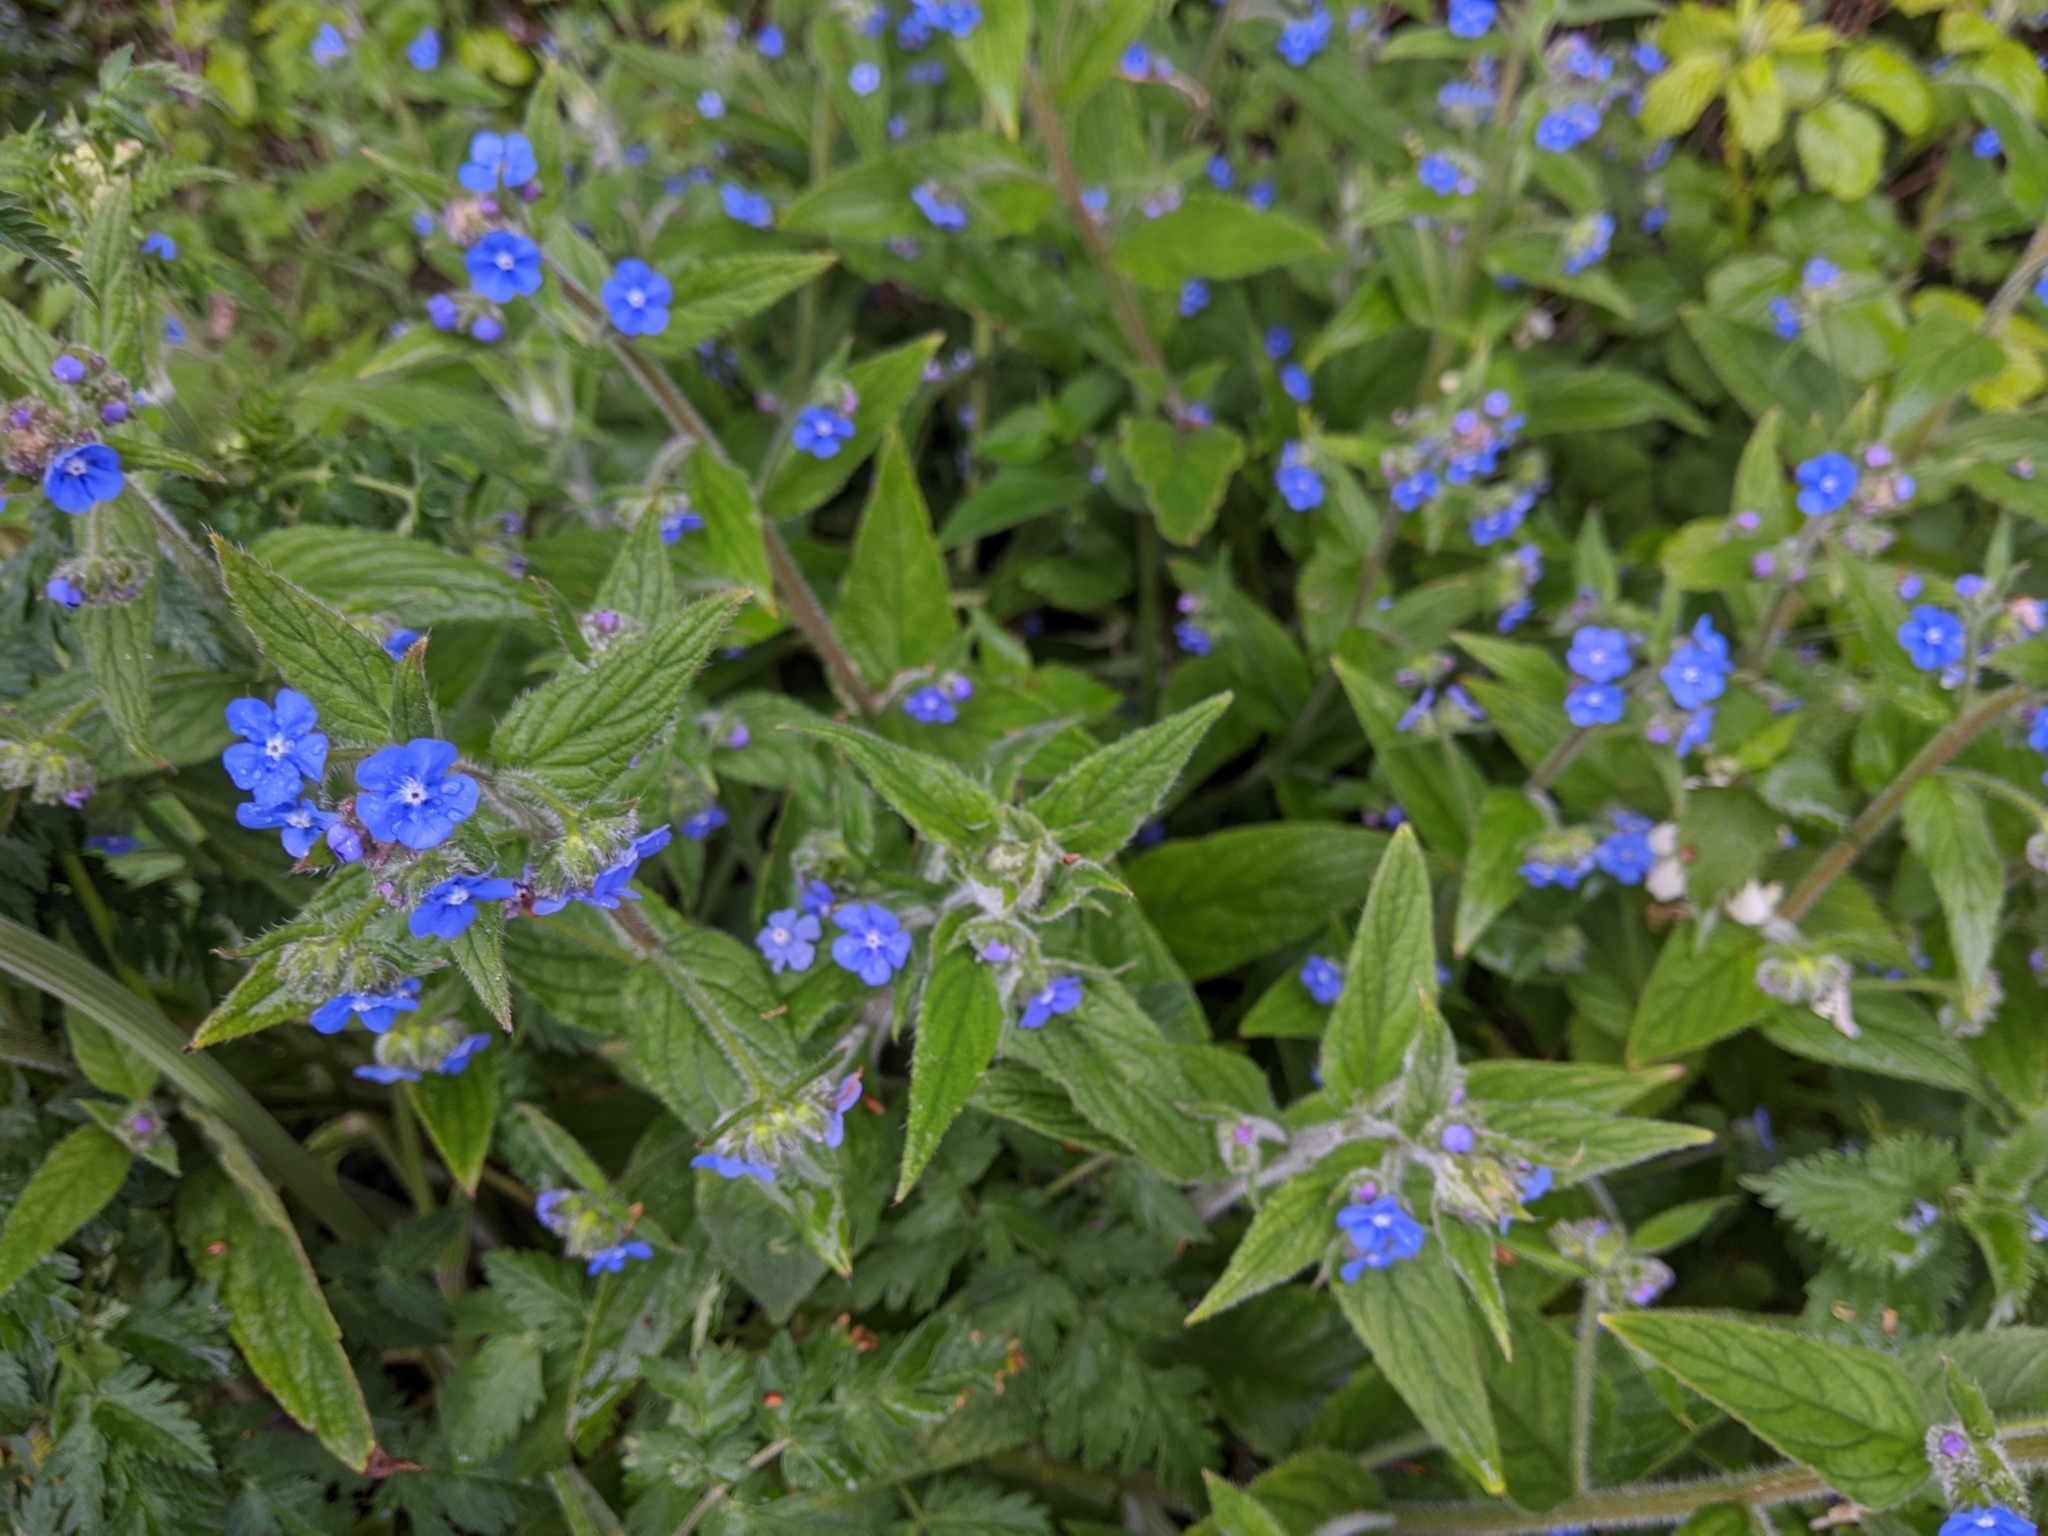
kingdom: Plantae
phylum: Tracheophyta
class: Magnoliopsida
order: Boraginales
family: Boraginaceae
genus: Pentaglottis
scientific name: Pentaglottis sempervirens
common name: Green alkanet
